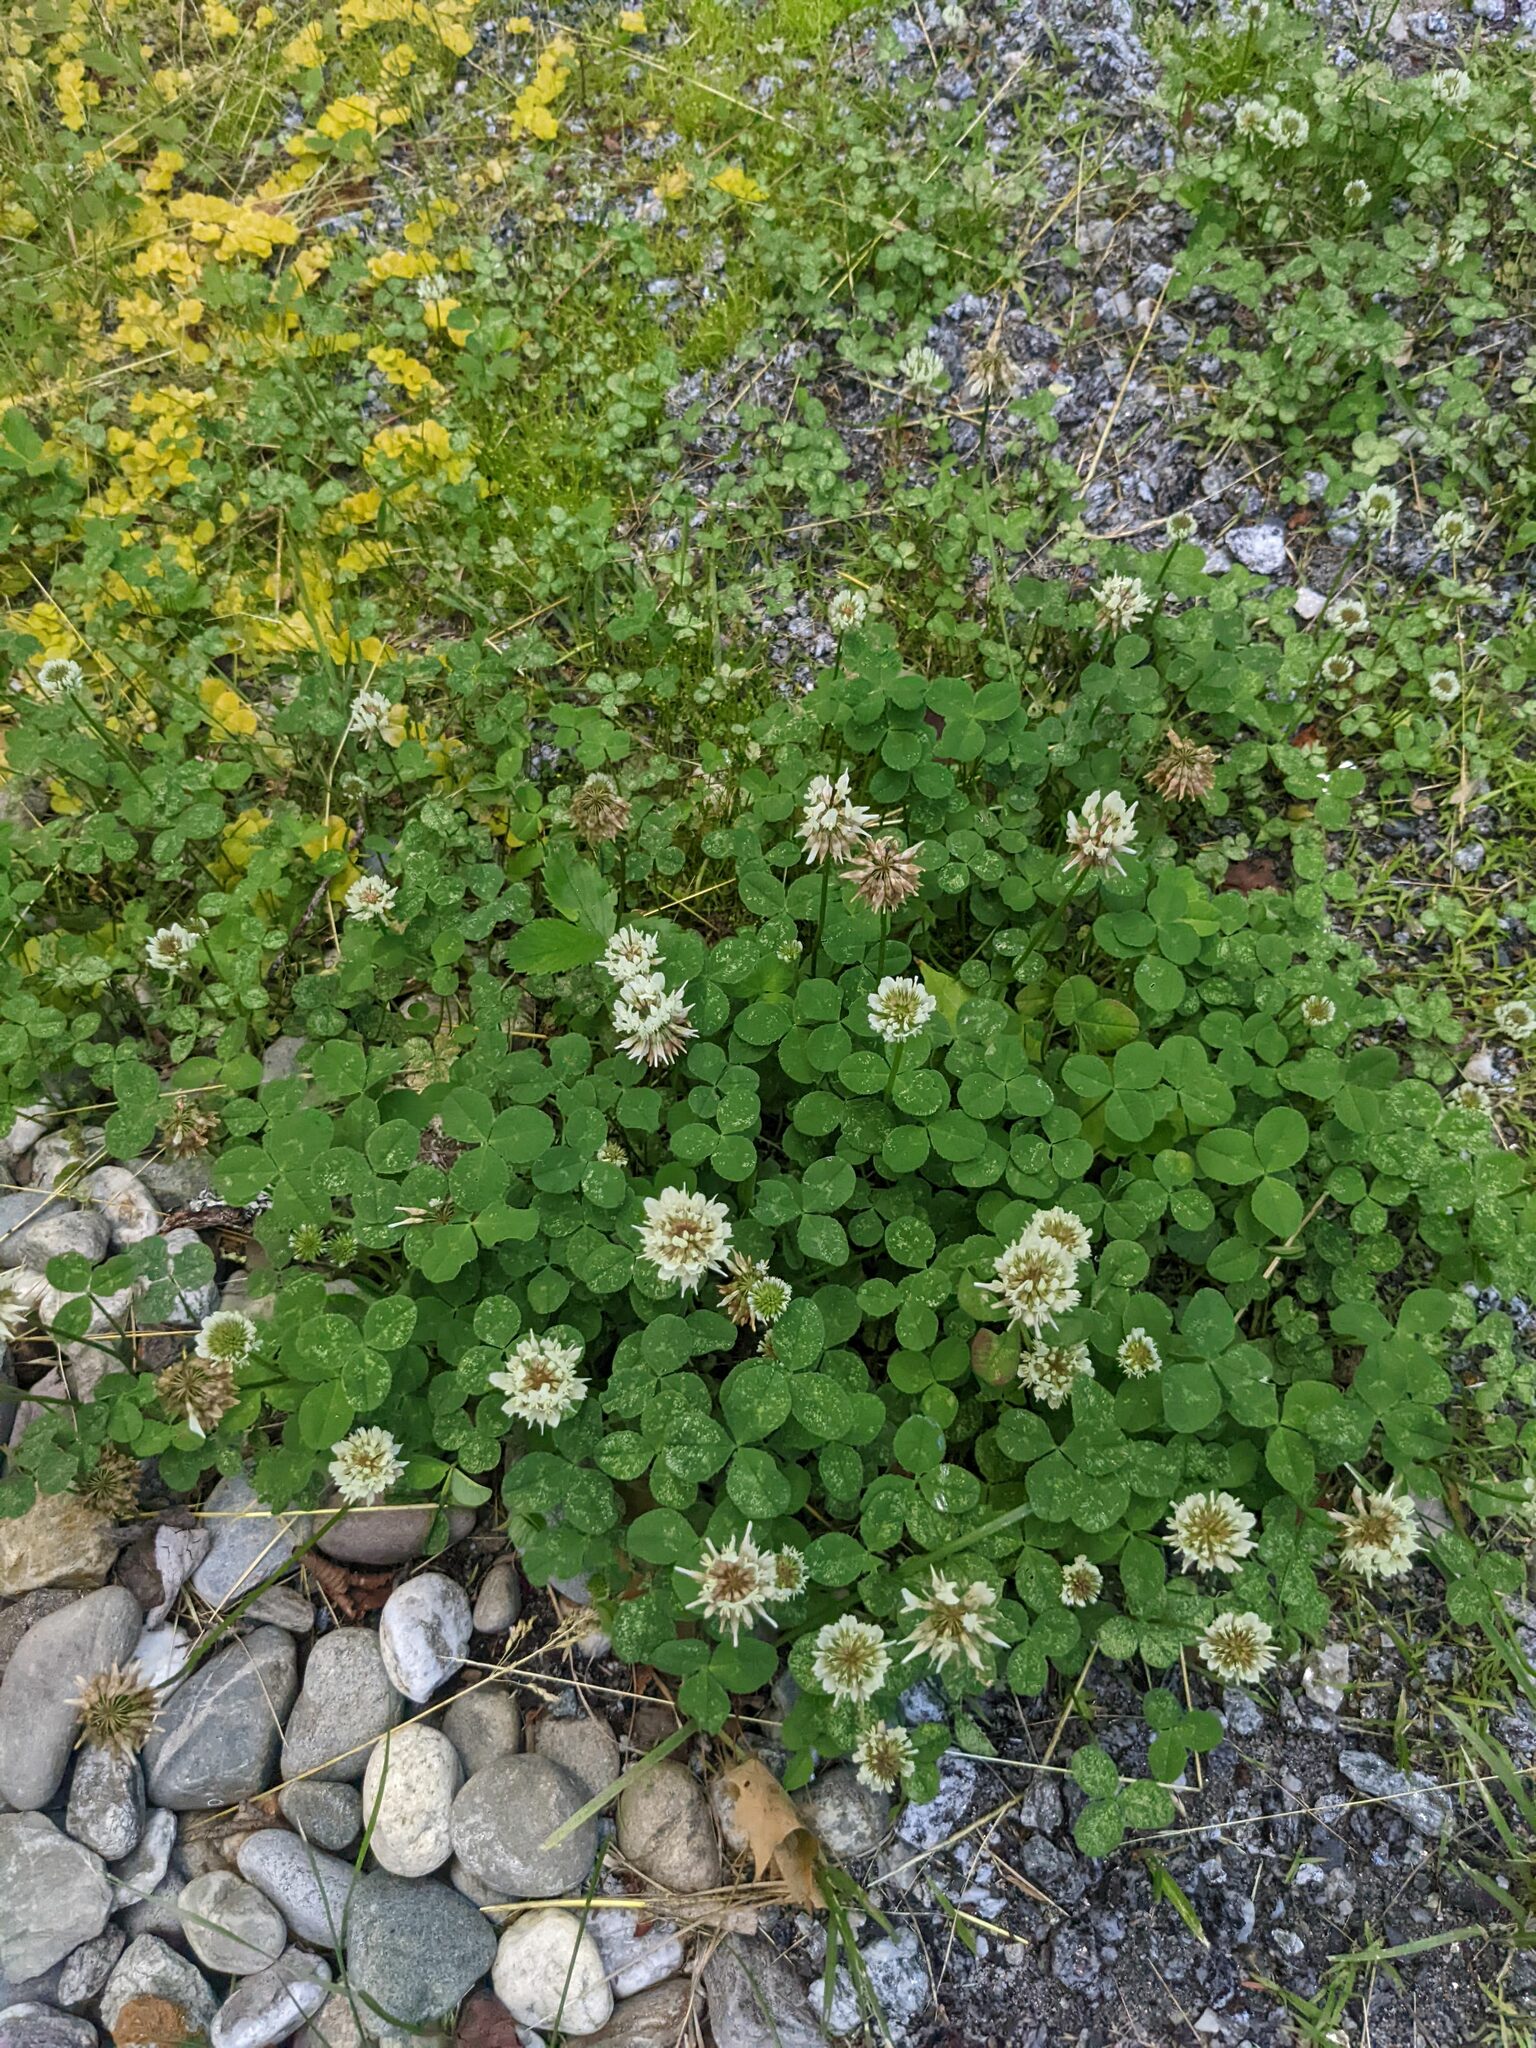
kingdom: Plantae
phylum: Tracheophyta
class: Magnoliopsida
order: Fabales
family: Fabaceae
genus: Trifolium
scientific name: Trifolium repens
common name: White clover
